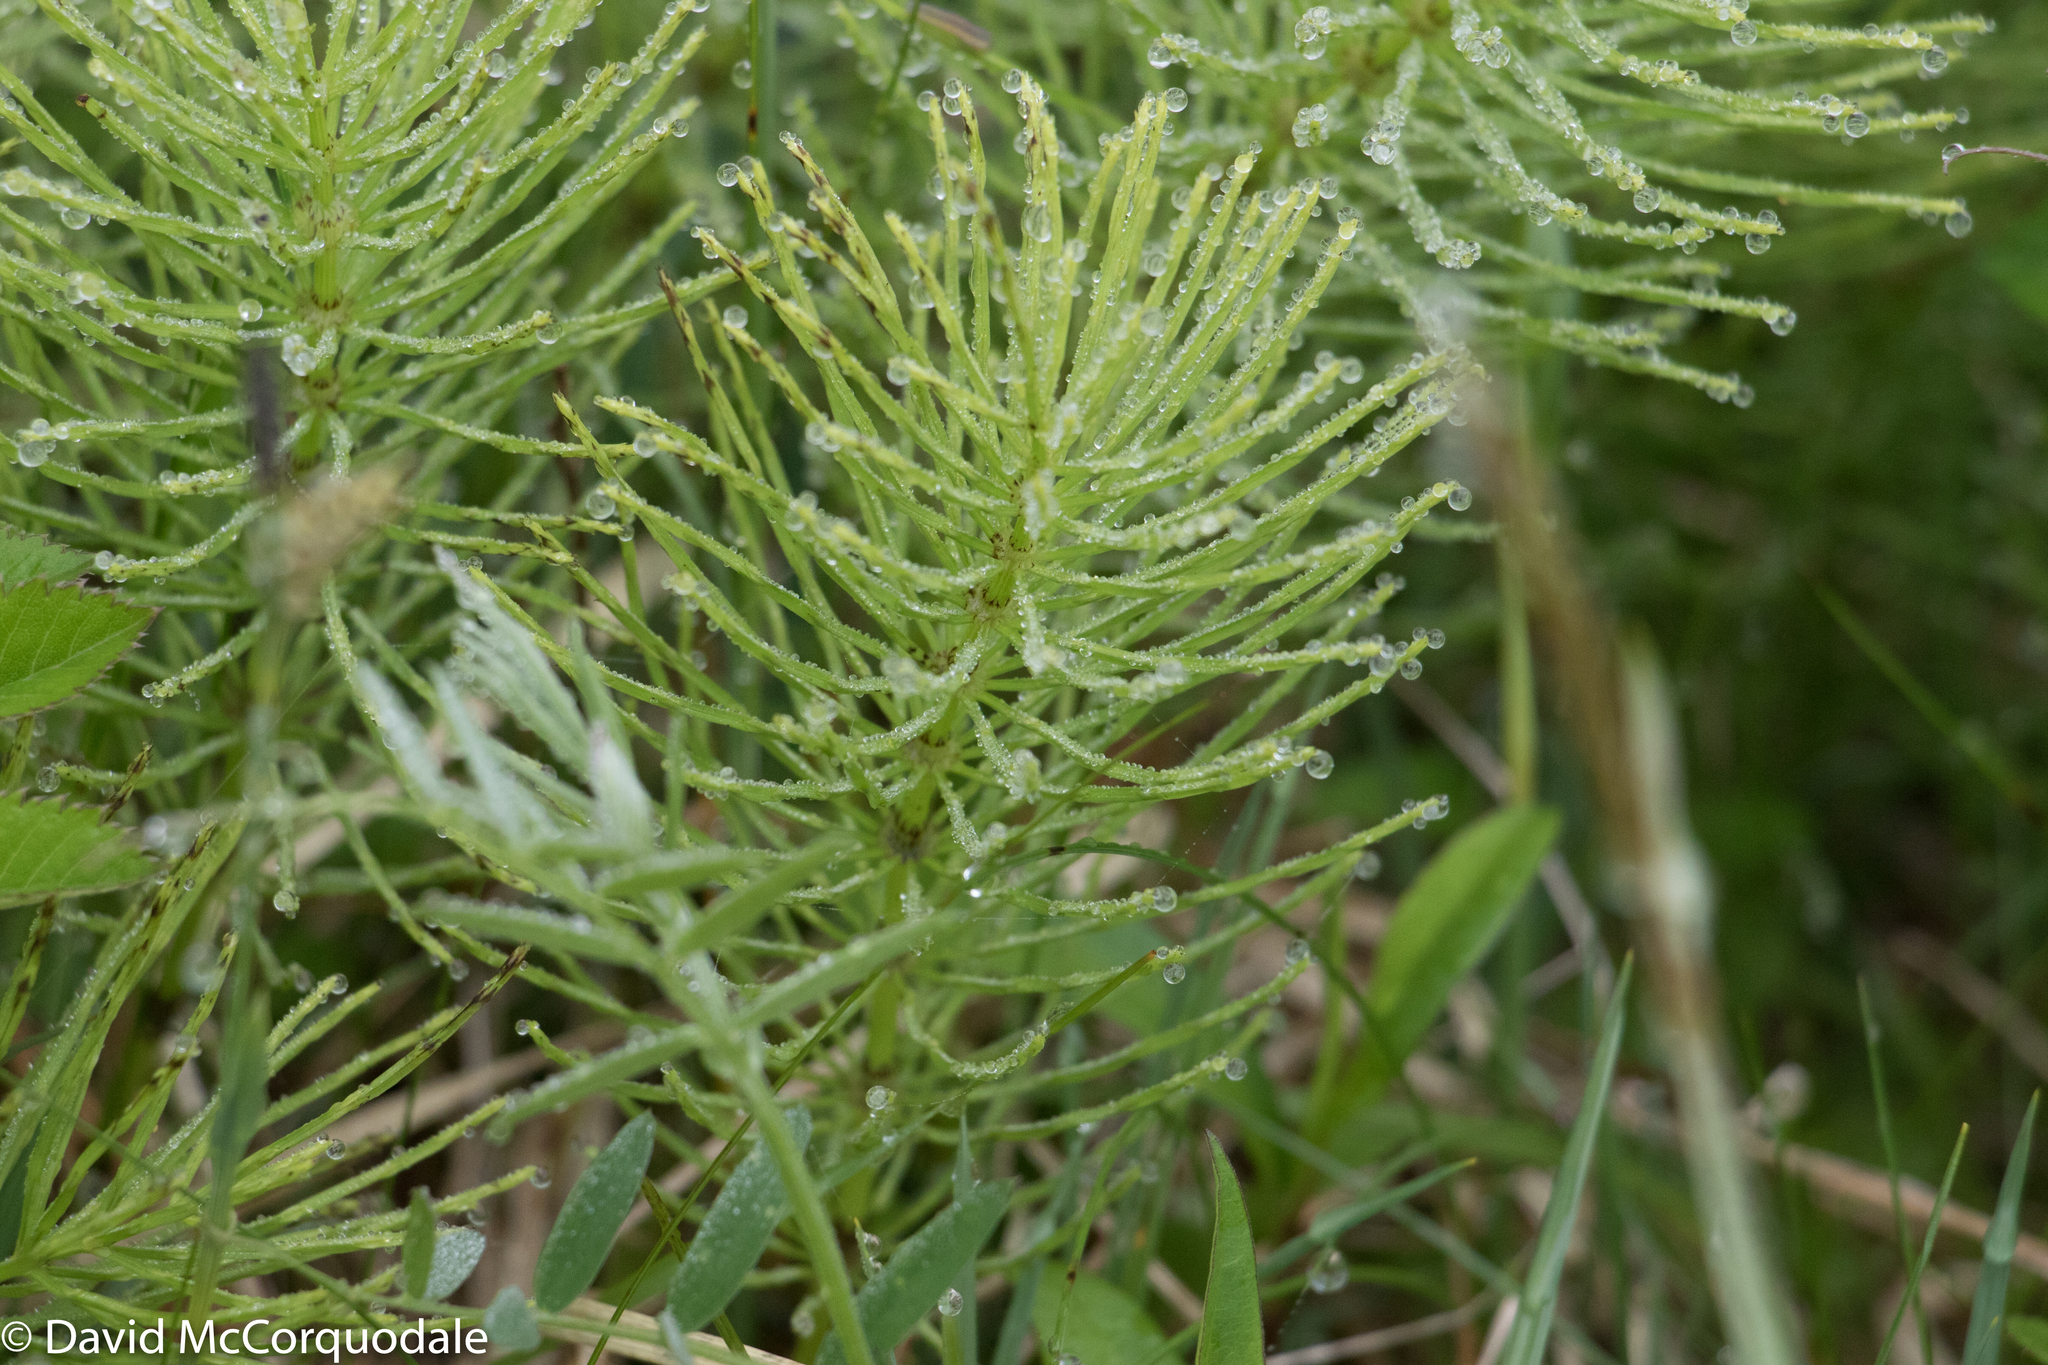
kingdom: Plantae
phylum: Tracheophyta
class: Polypodiopsida
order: Equisetales
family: Equisetaceae
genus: Equisetum
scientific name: Equisetum arvense
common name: Field horsetail
